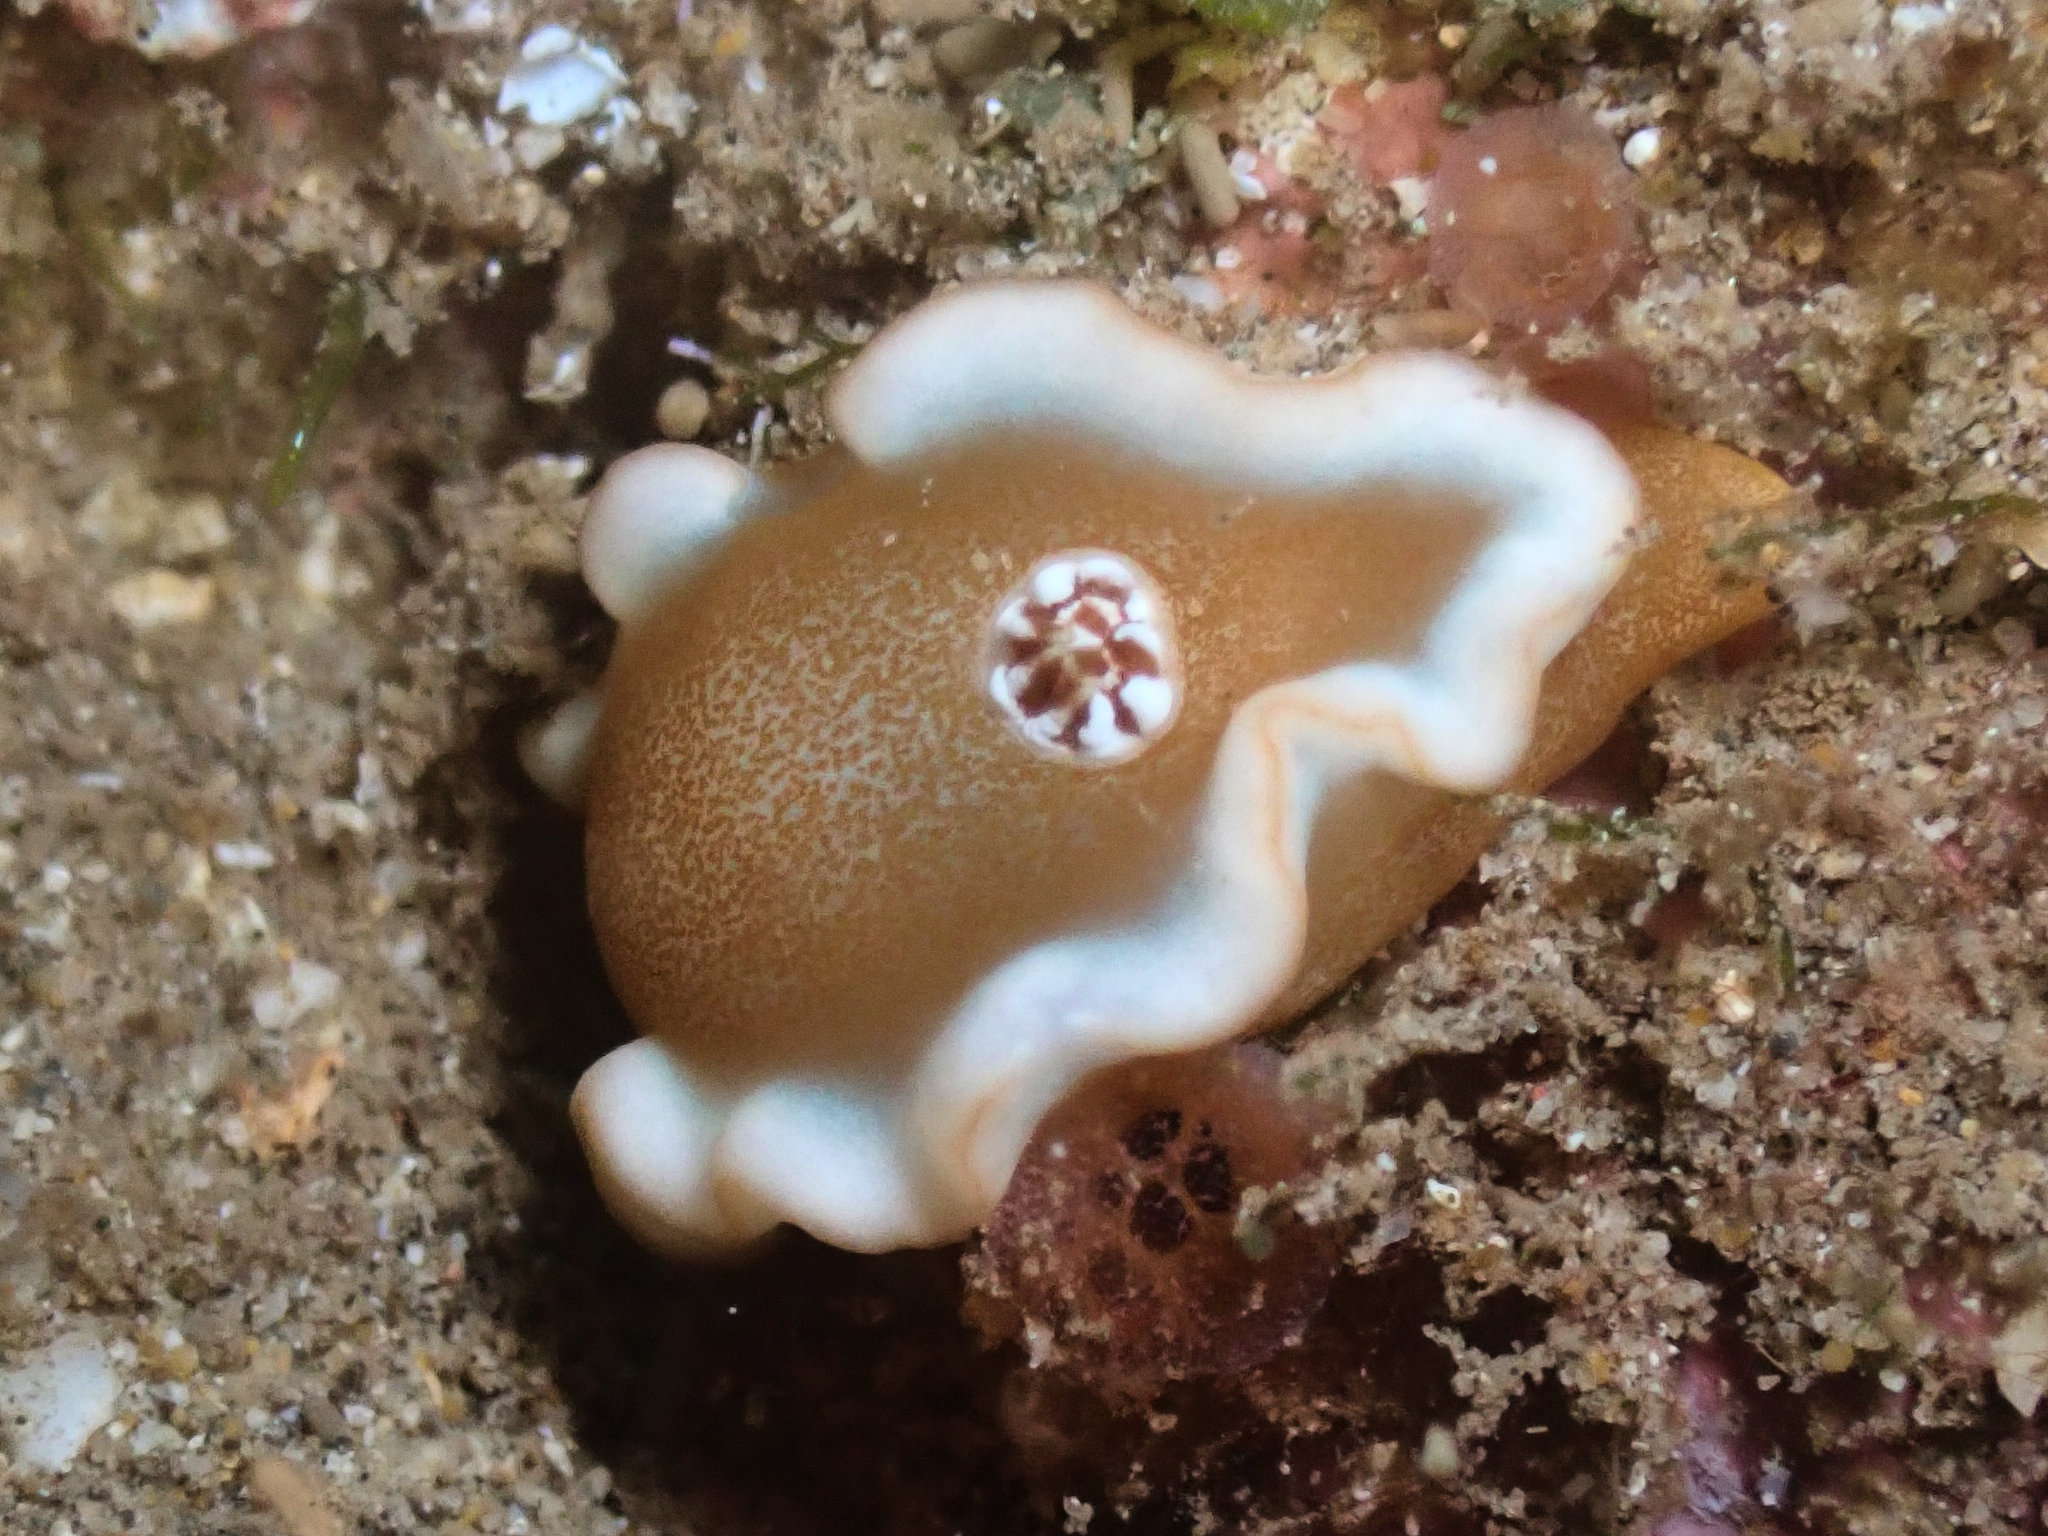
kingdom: Animalia
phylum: Mollusca
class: Gastropoda
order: Nudibranchia
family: Chromodorididae
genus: Glossodoris
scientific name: Glossodoris rufomarginata
